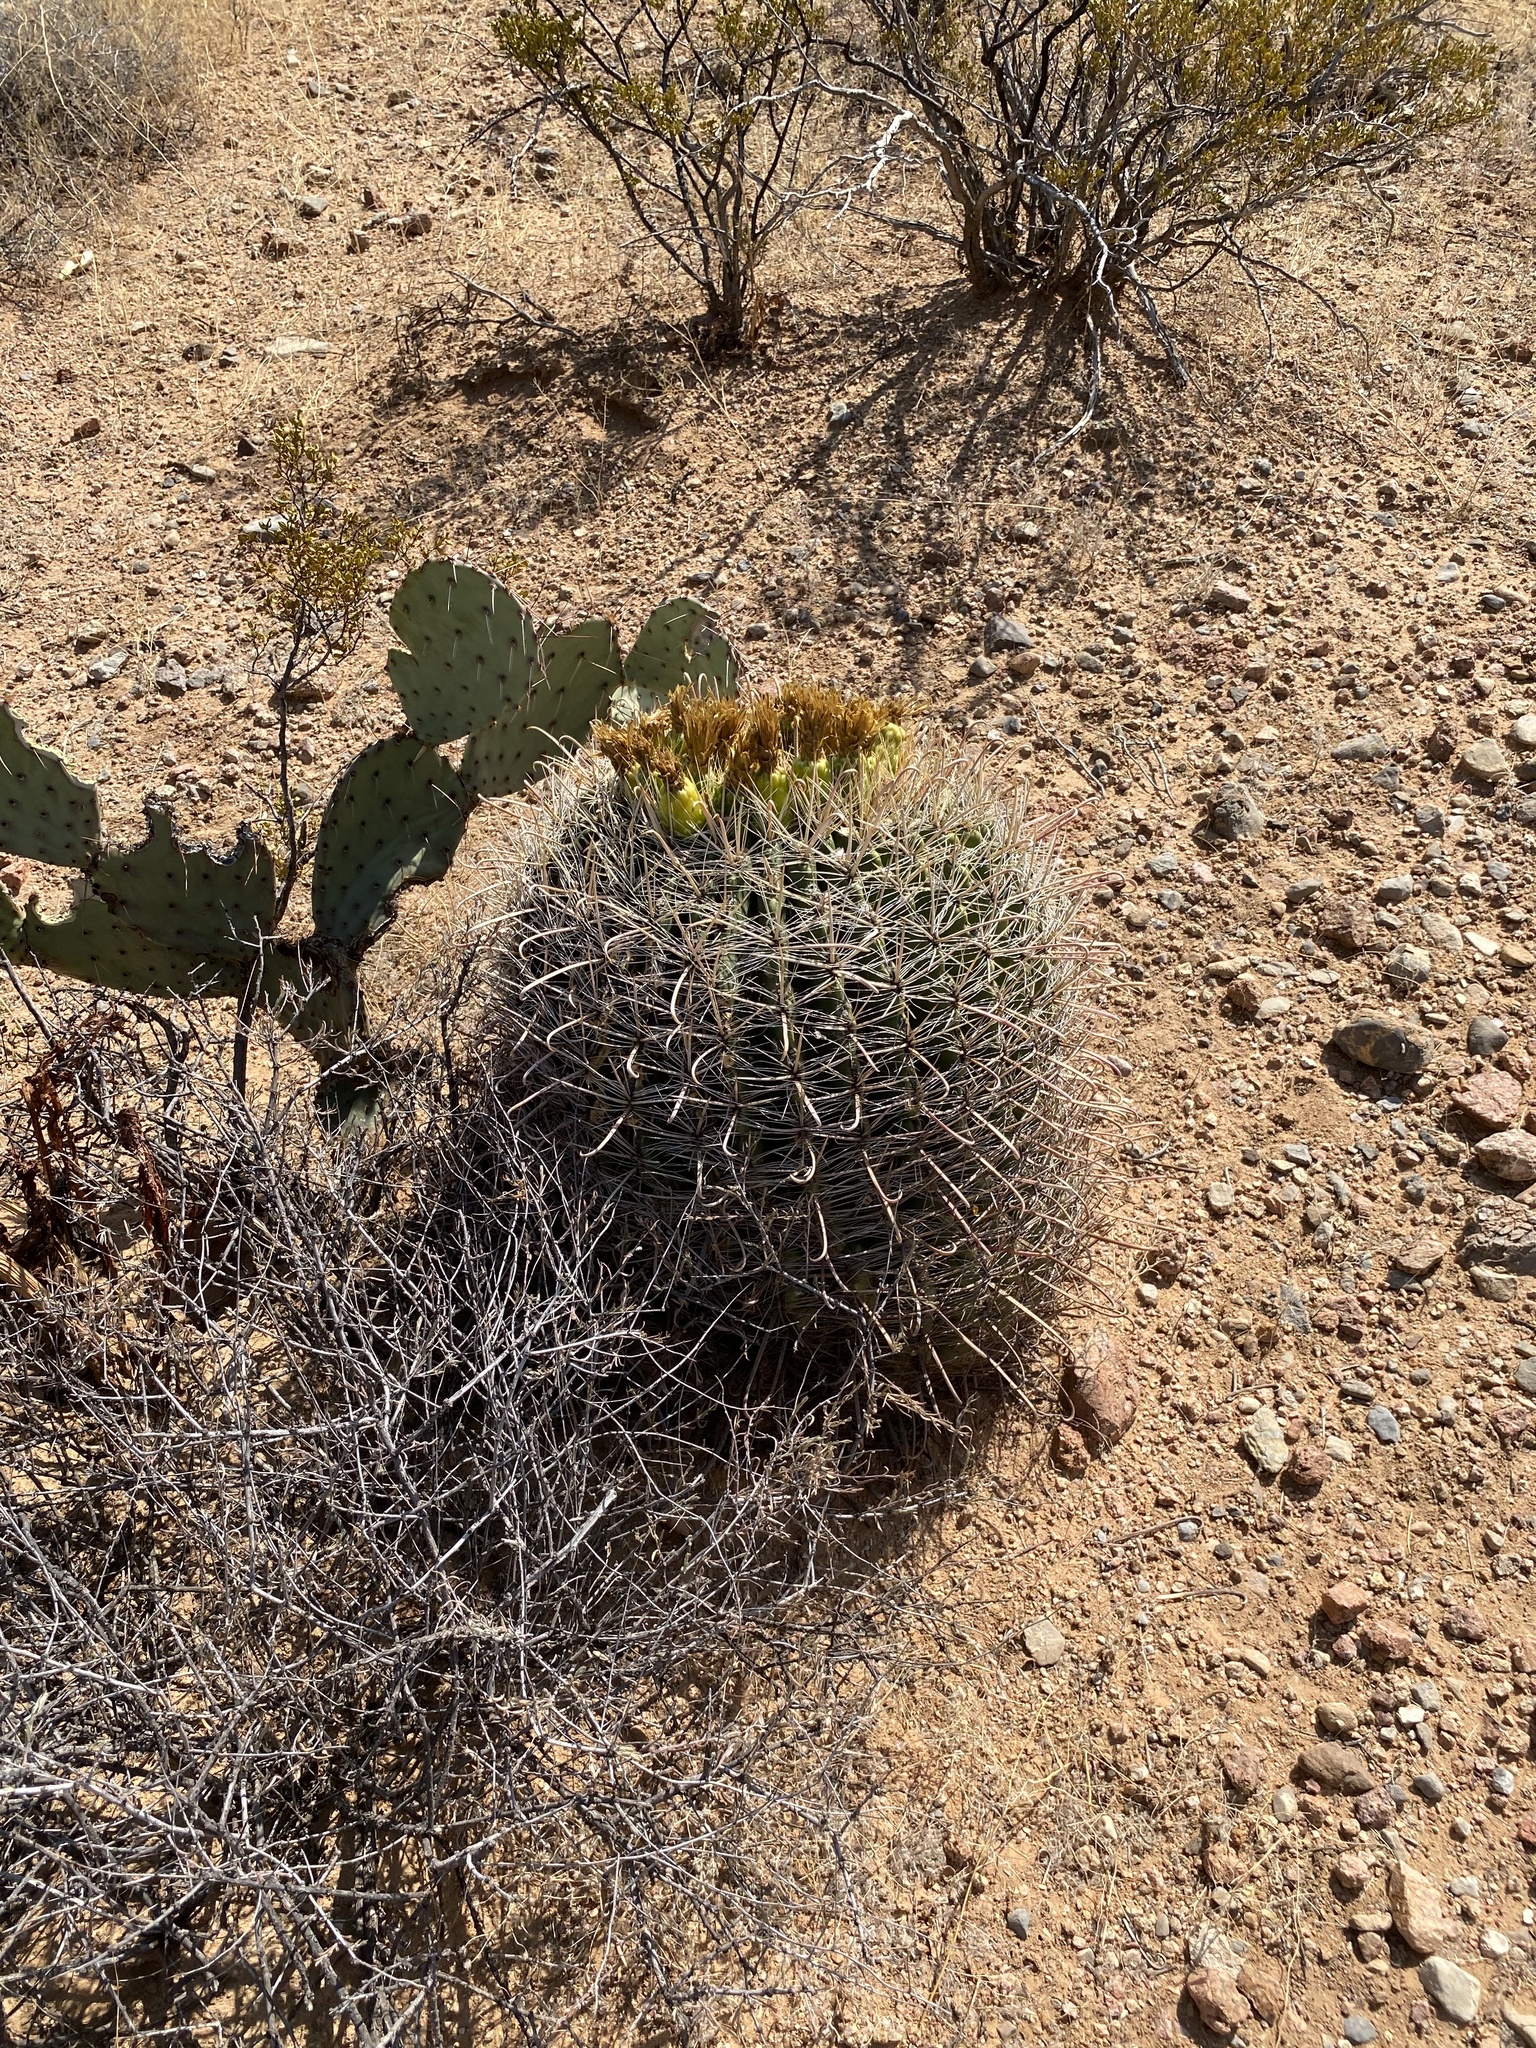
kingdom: Plantae
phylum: Tracheophyta
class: Magnoliopsida
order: Caryophyllales
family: Cactaceae
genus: Ferocactus
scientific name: Ferocactus wislizeni
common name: Candy barrel cactus
